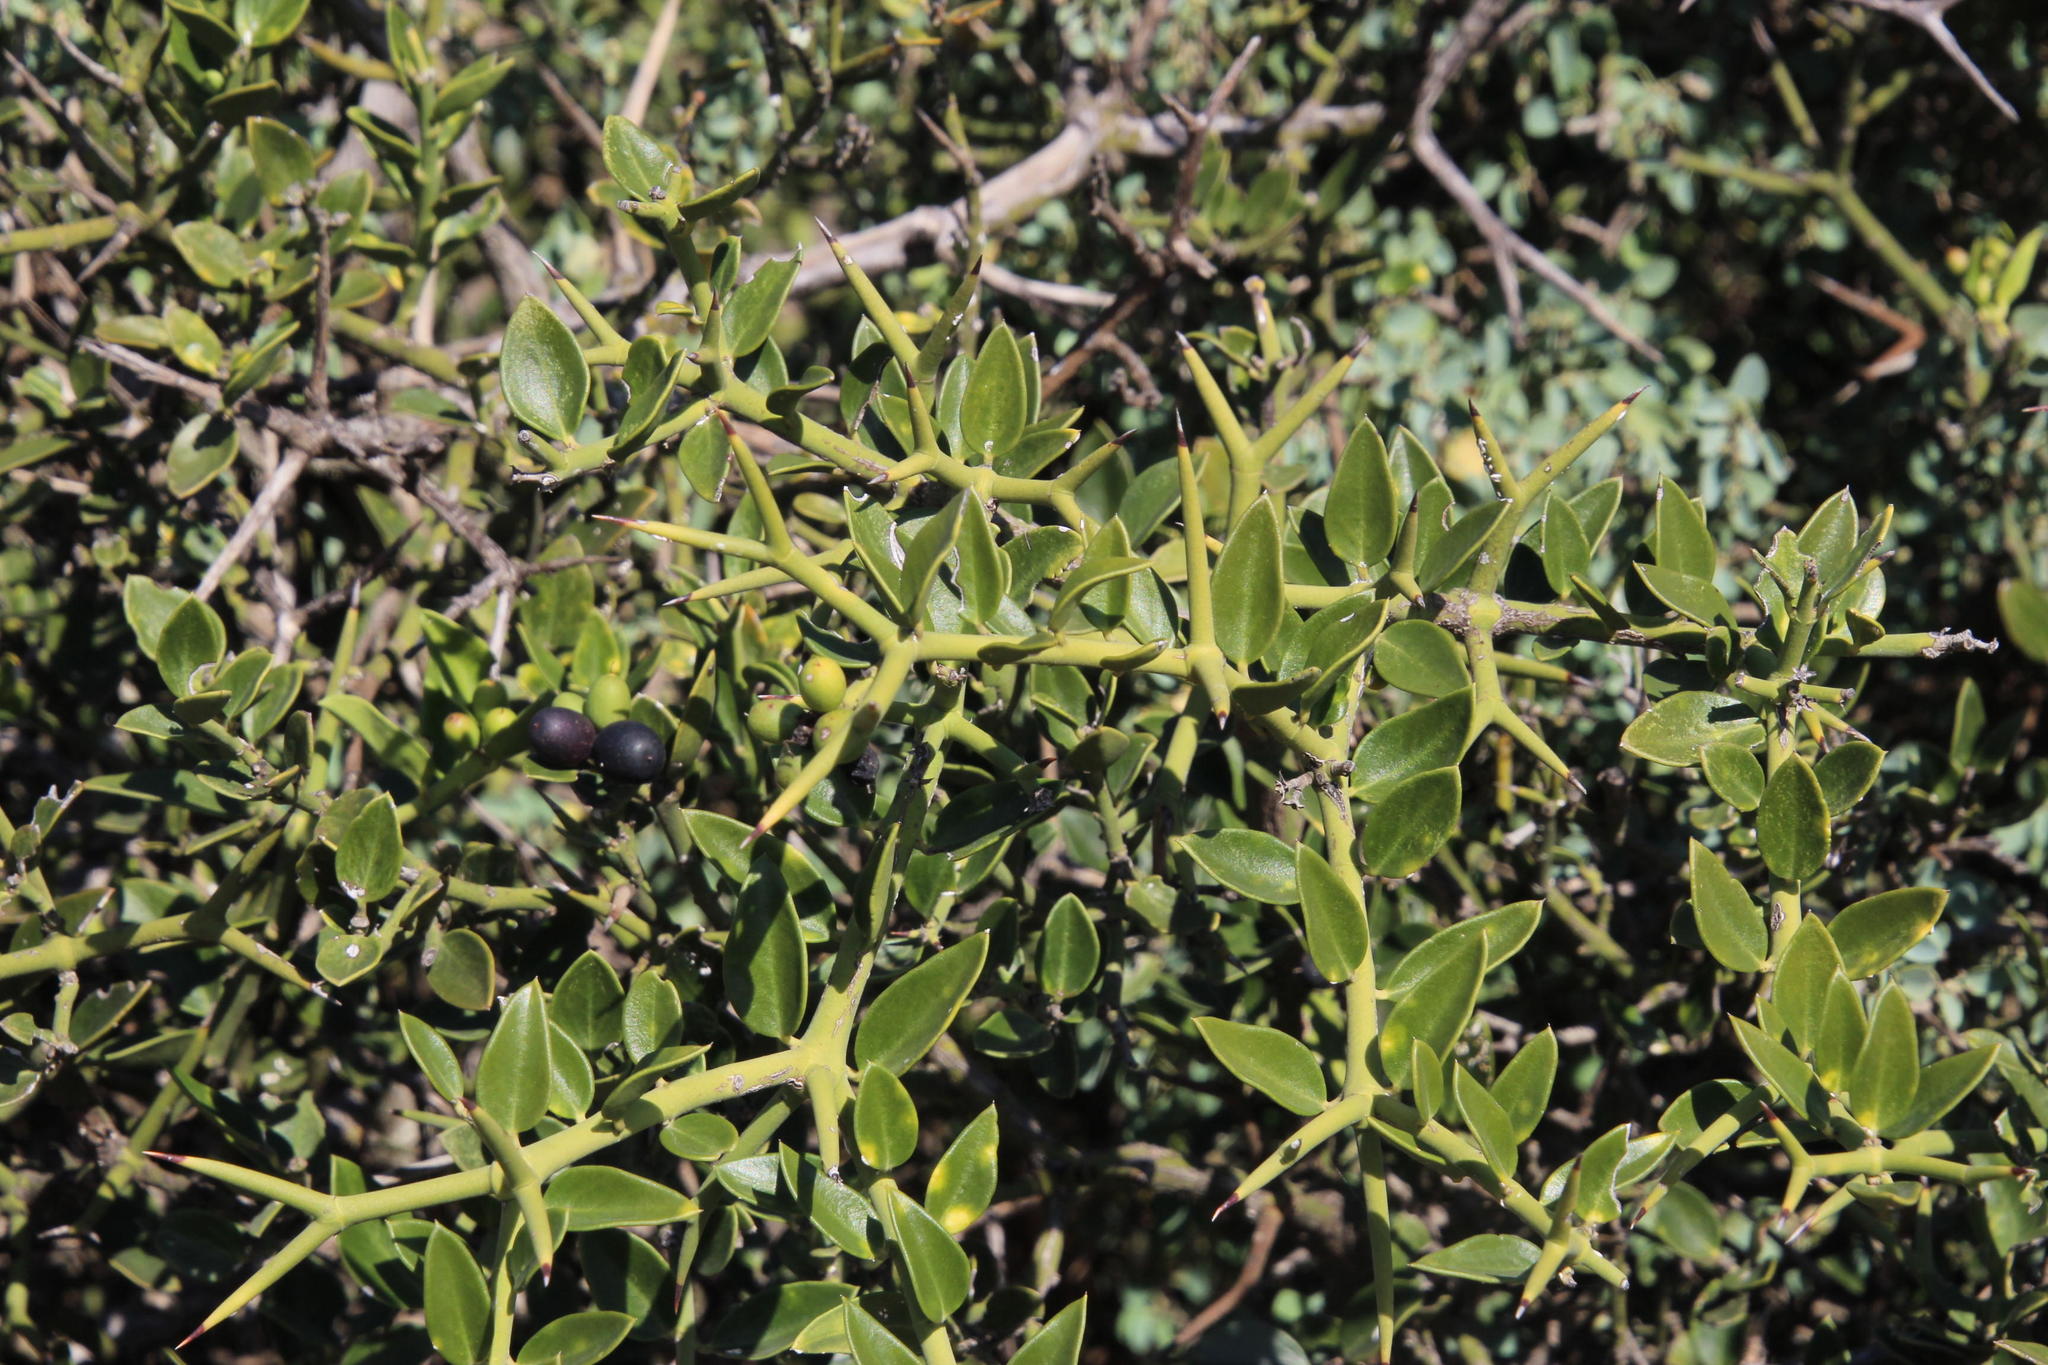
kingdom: Plantae
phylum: Tracheophyta
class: Magnoliopsida
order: Gentianales
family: Apocynaceae
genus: Carissa
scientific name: Carissa haematocarpa
